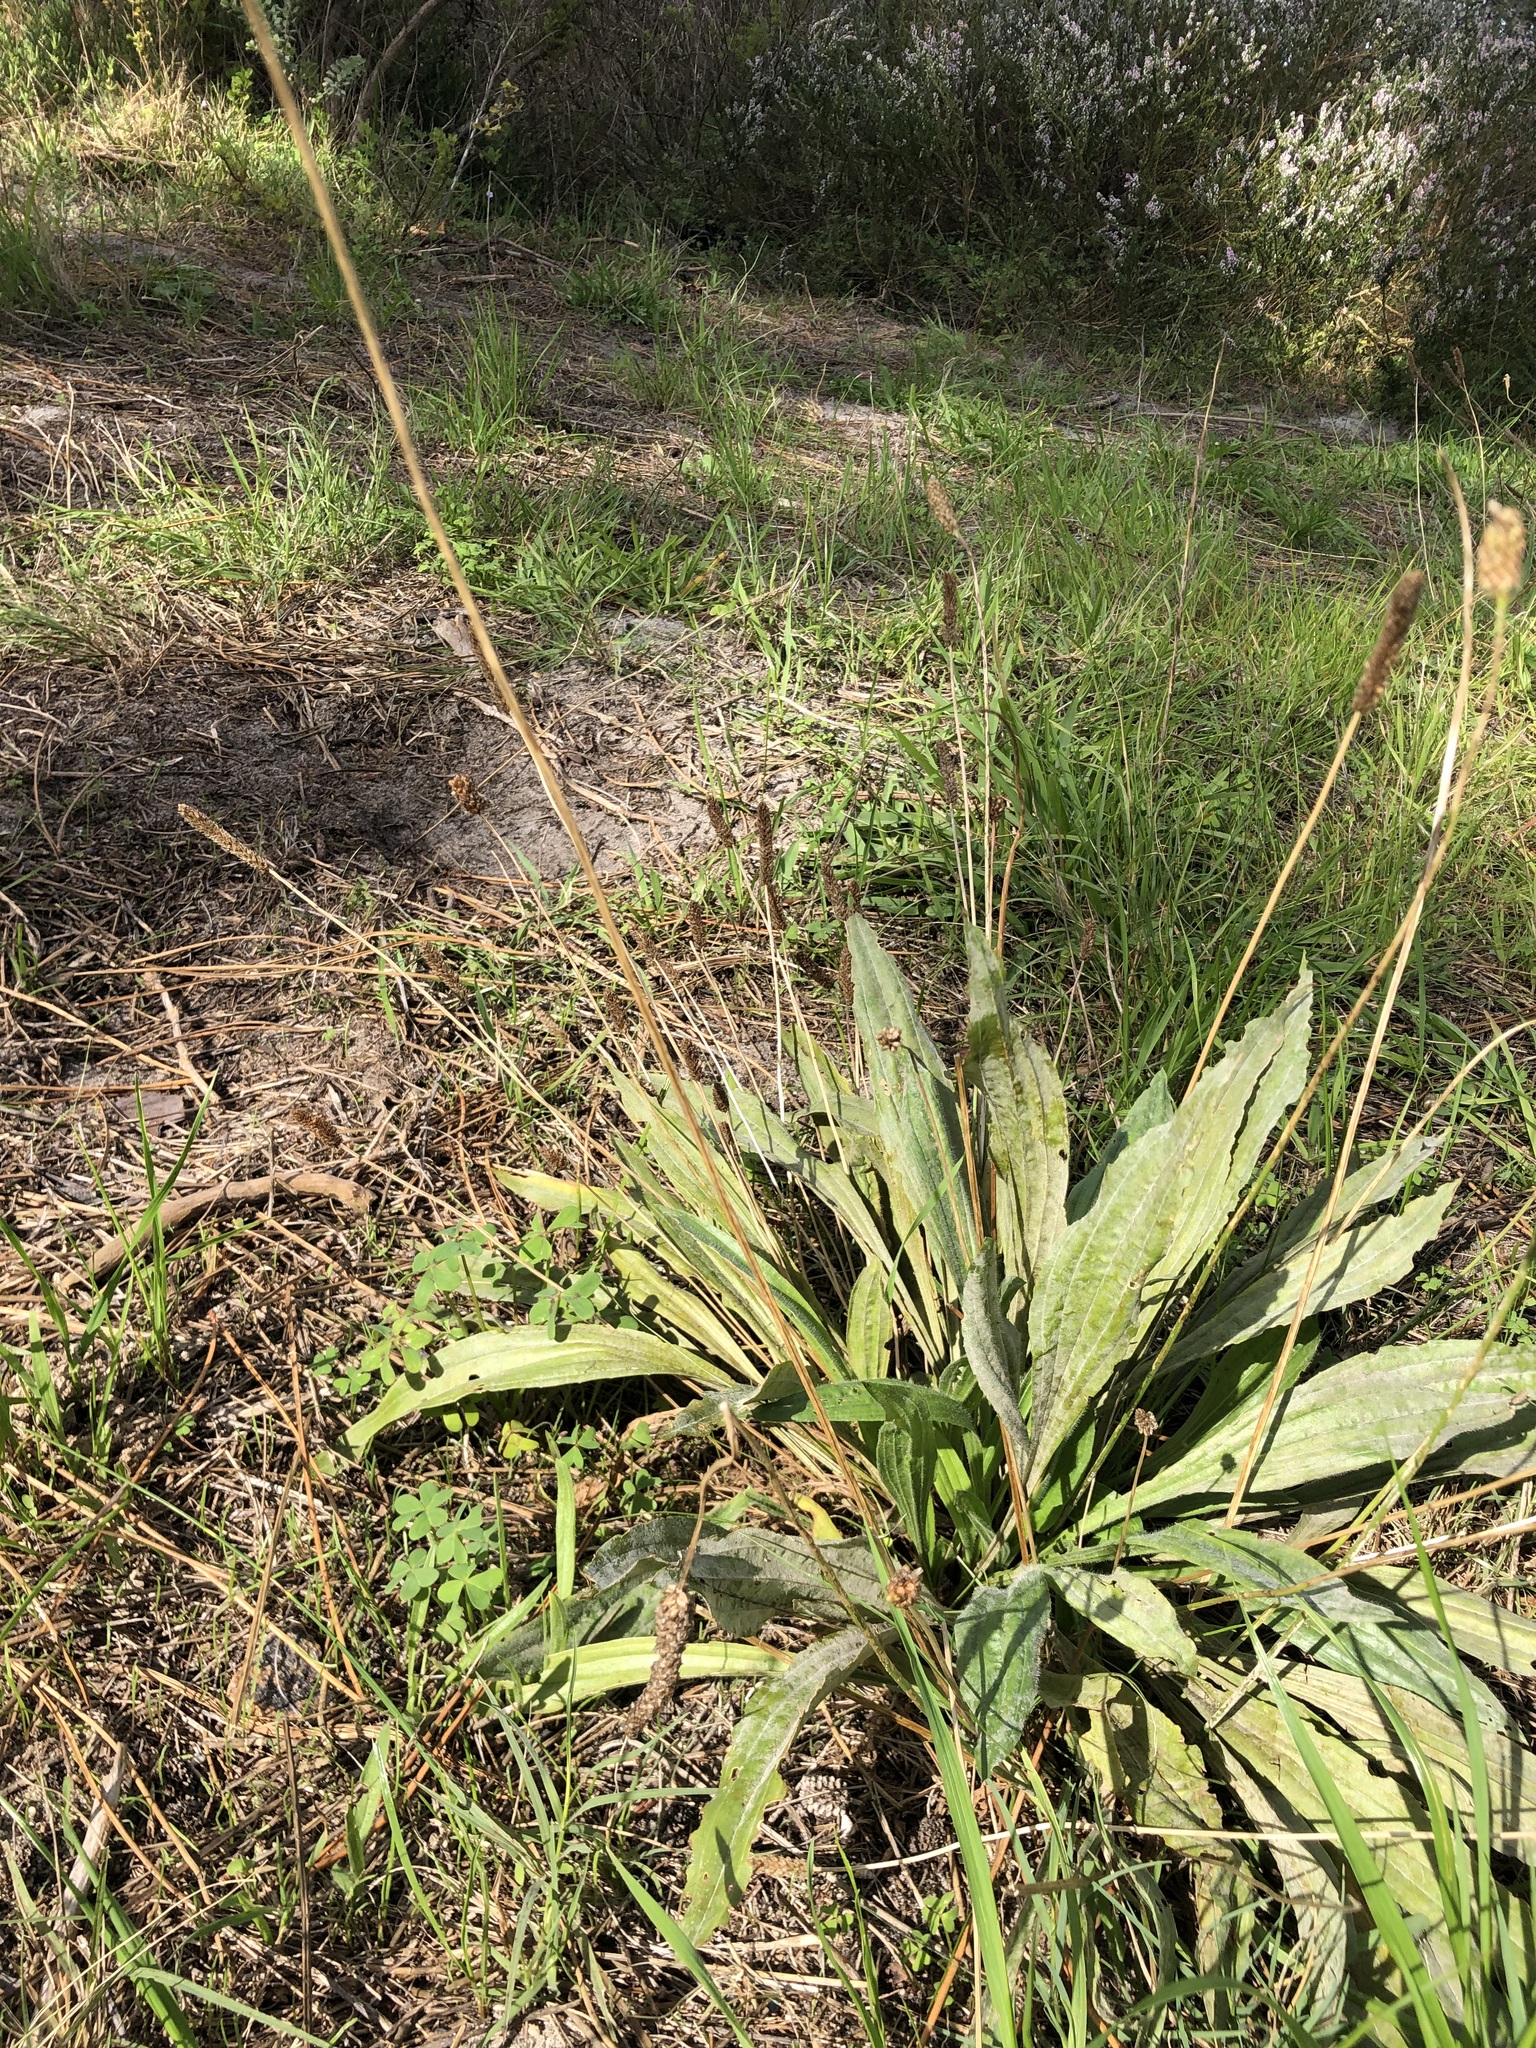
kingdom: Plantae
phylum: Tracheophyta
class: Magnoliopsida
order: Lamiales
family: Plantaginaceae
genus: Plantago
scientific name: Plantago lanceolata
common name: Ribwort plantain
